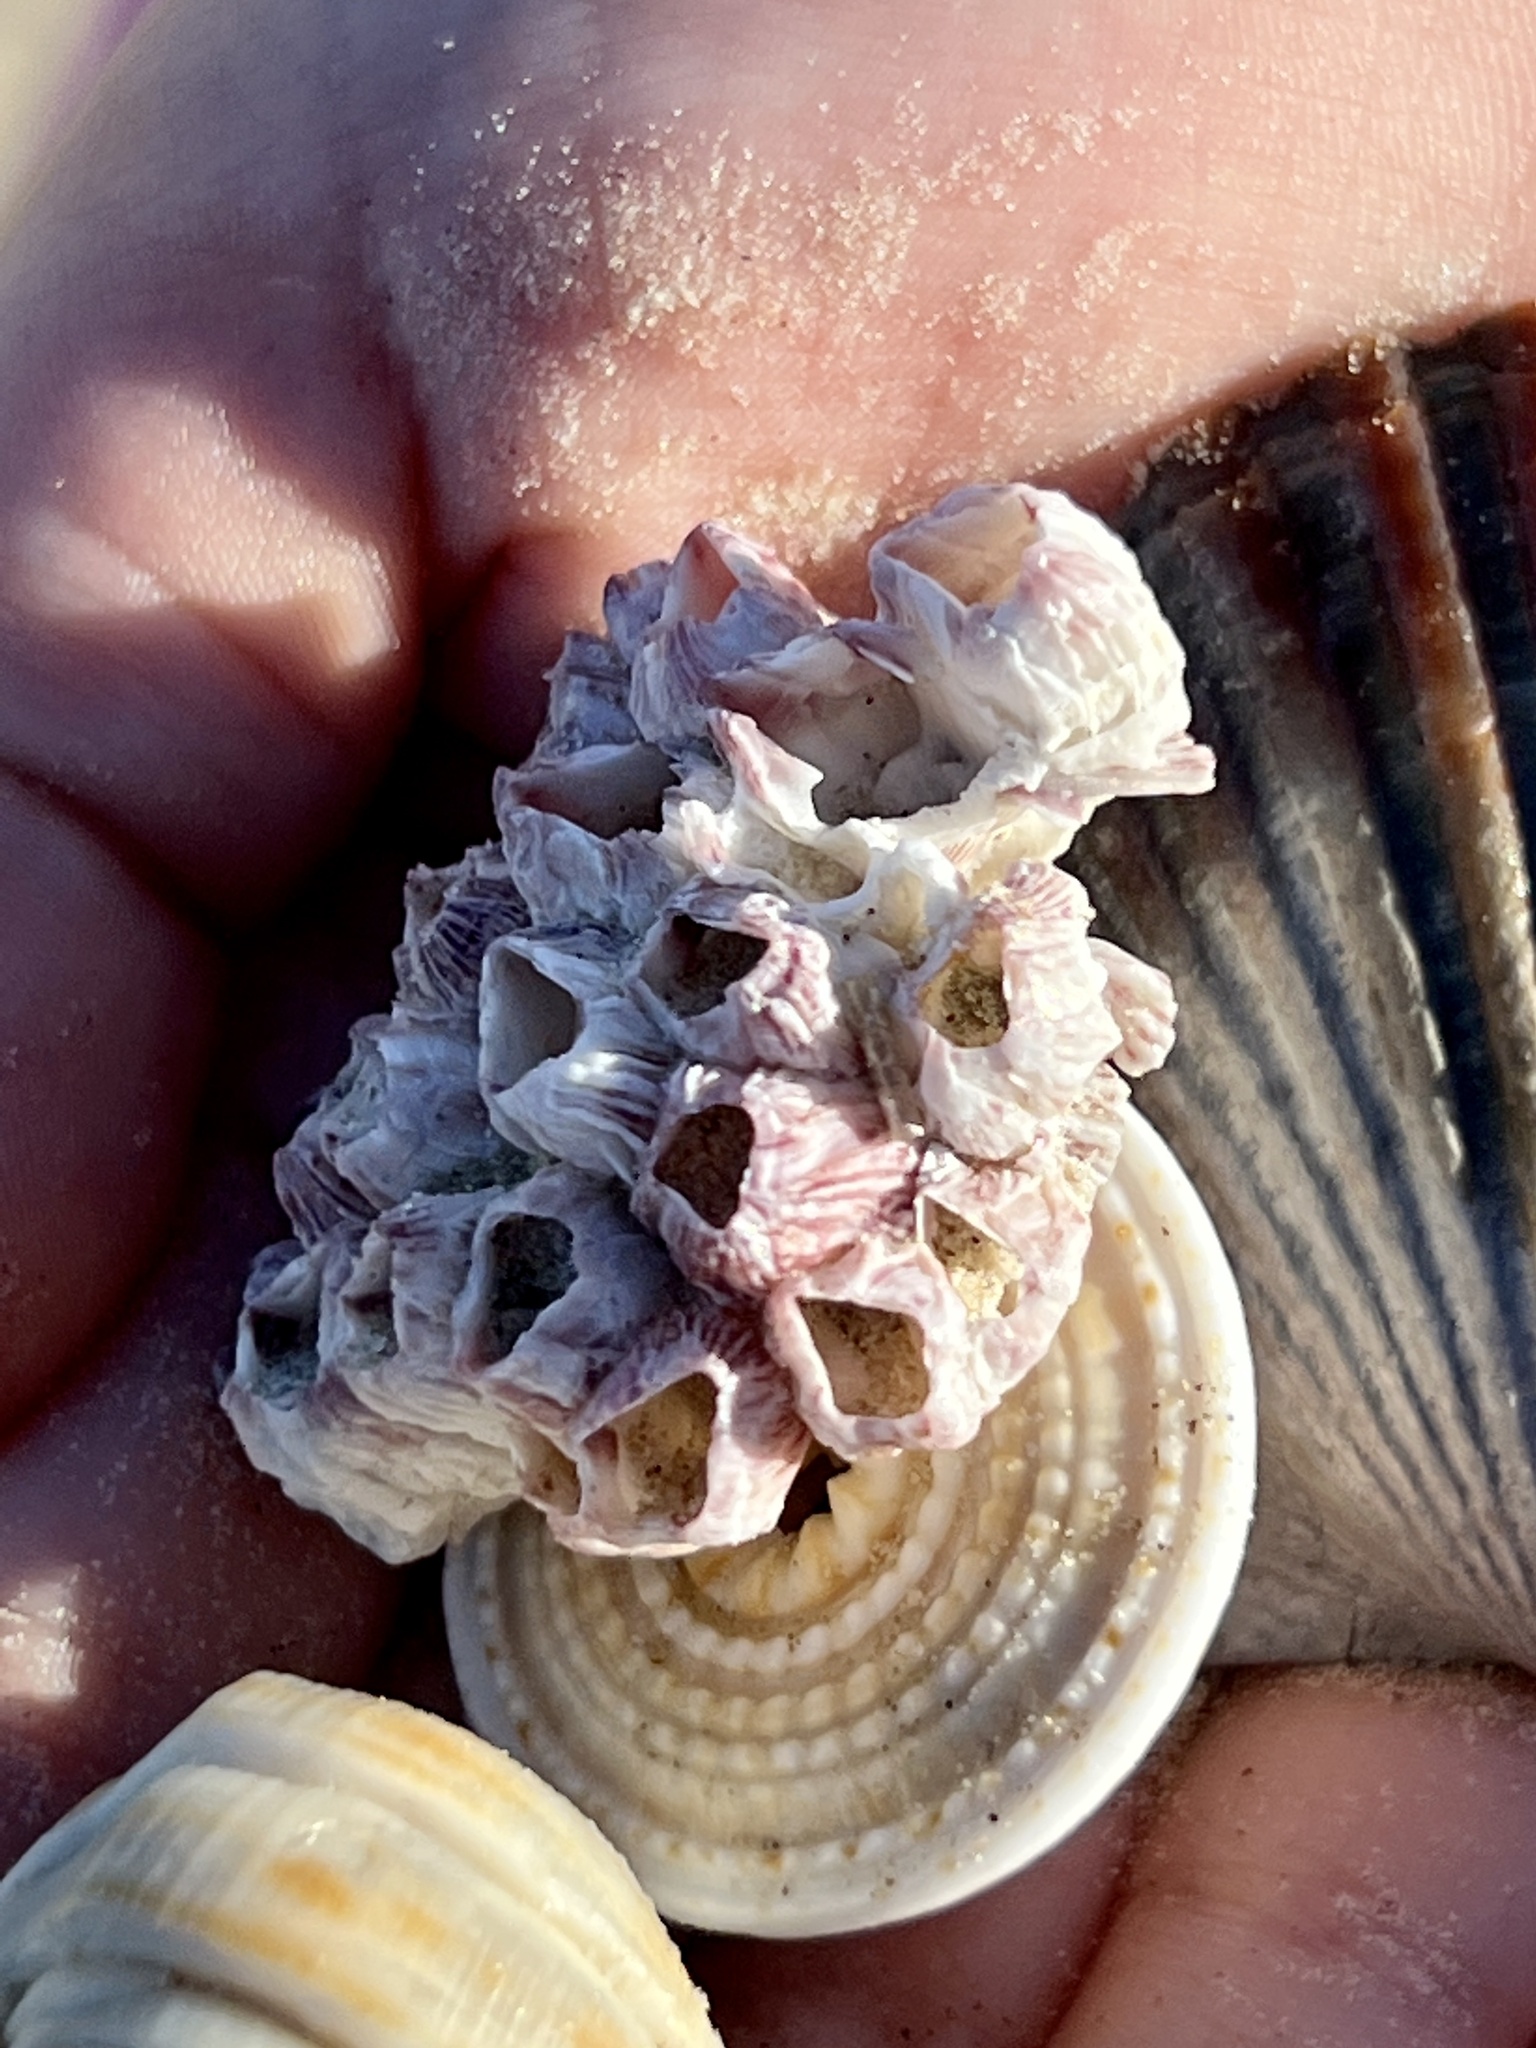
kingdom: Animalia
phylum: Arthropoda
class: Maxillopoda
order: Sessilia
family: Balanidae
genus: Balanus
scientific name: Balanus trigonus
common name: Triangle barnacle
